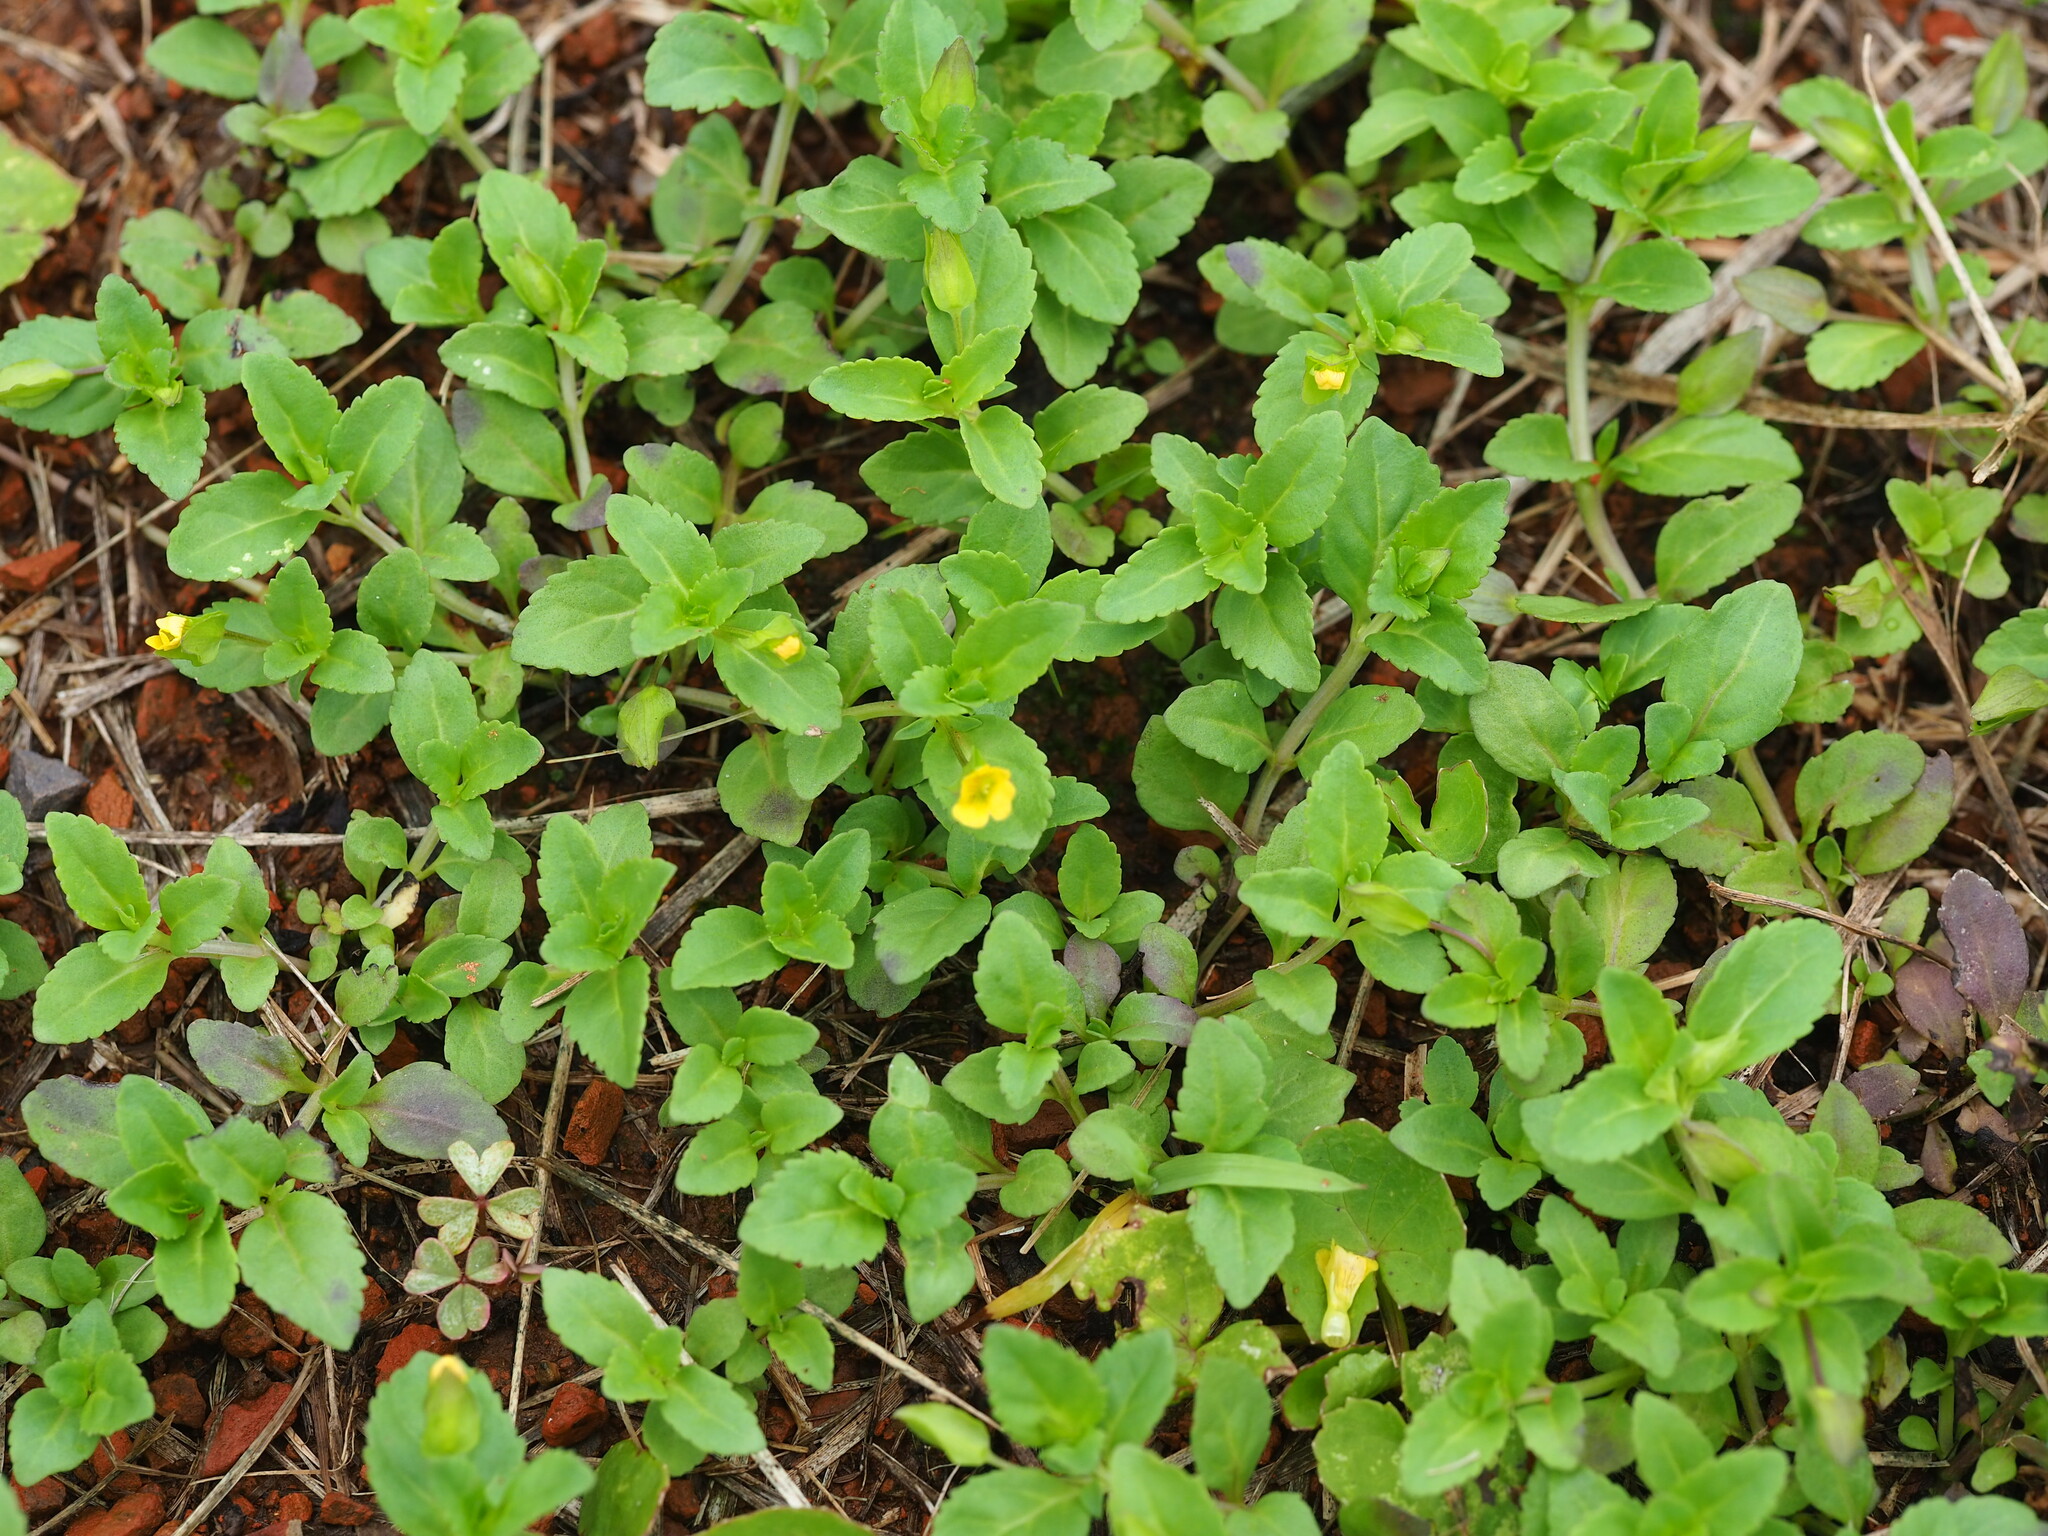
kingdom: Plantae
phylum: Tracheophyta
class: Magnoliopsida
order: Lamiales
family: Plantaginaceae
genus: Mecardonia
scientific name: Mecardonia procumbens
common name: Baby jump-up
